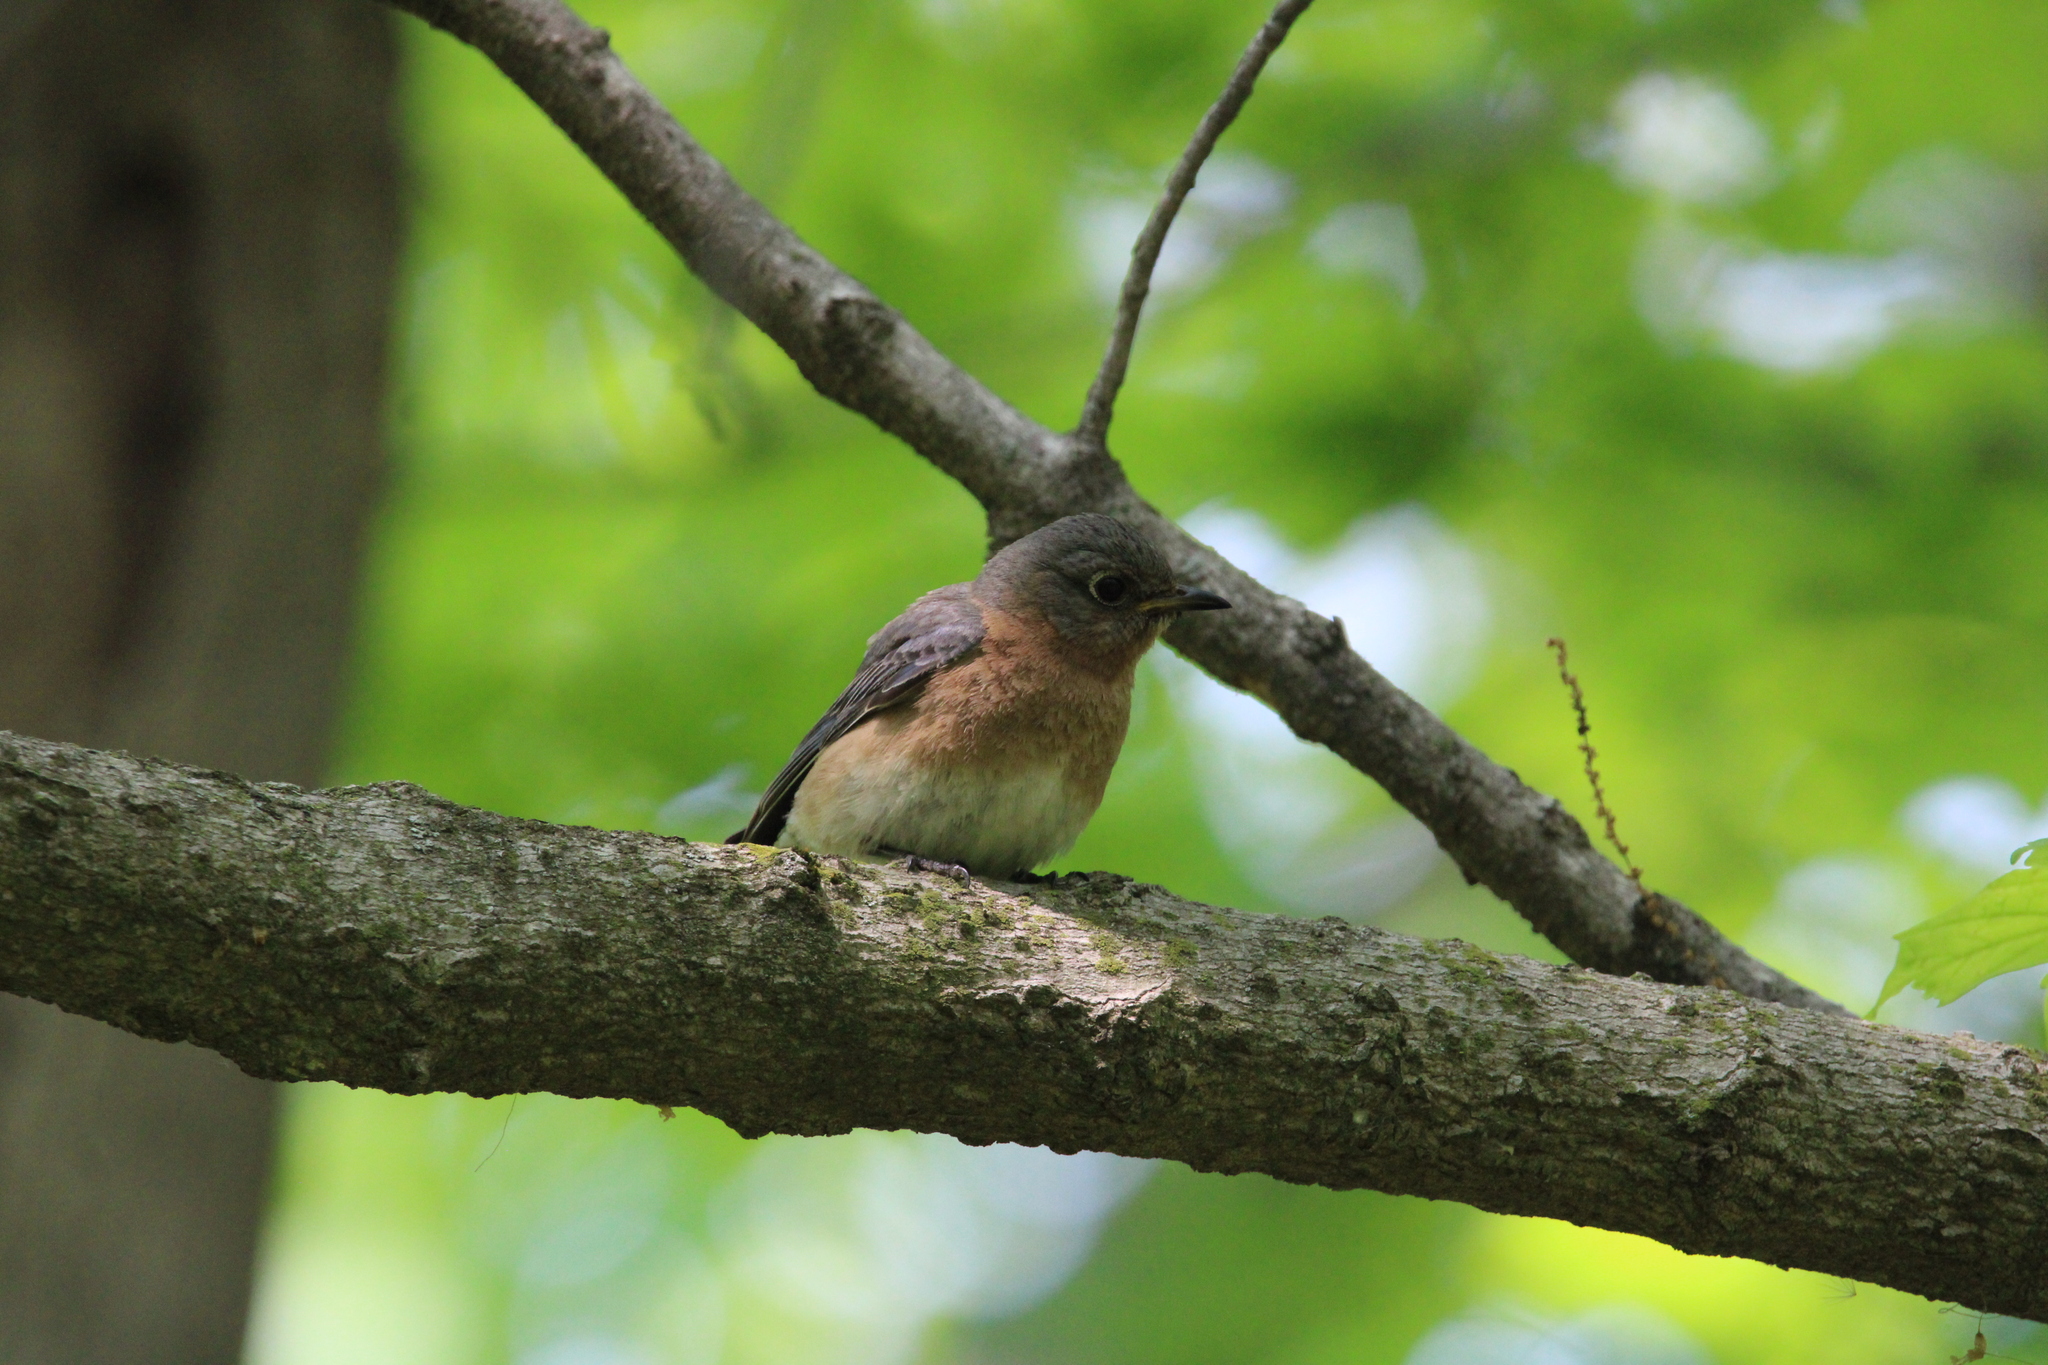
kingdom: Animalia
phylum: Chordata
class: Aves
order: Passeriformes
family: Turdidae
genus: Sialia
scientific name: Sialia sialis
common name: Eastern bluebird
